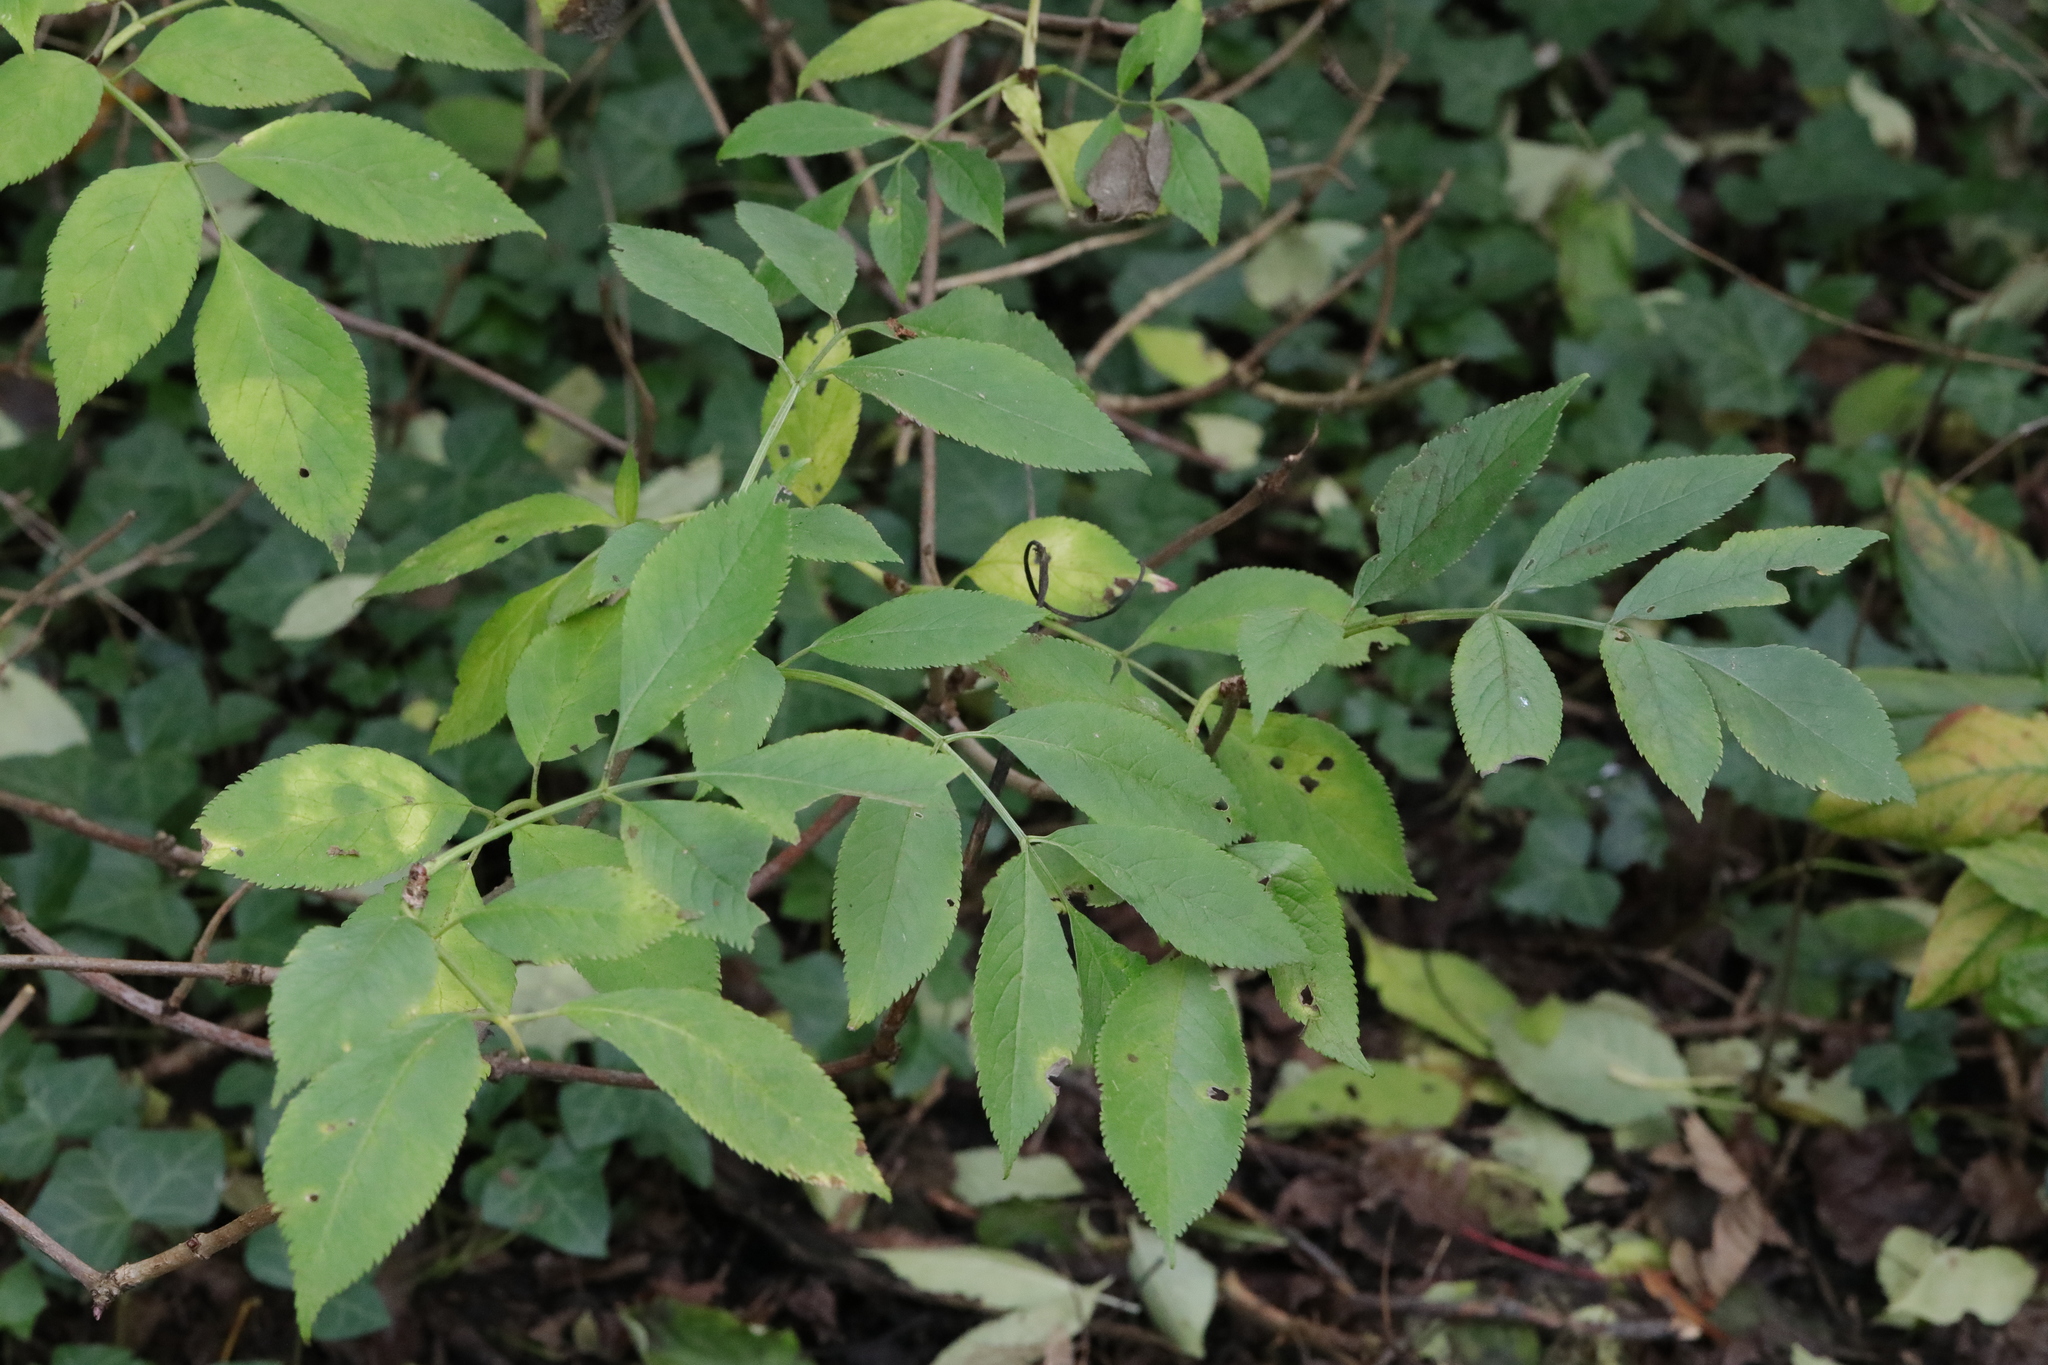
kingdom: Plantae
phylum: Tracheophyta
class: Magnoliopsida
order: Dipsacales
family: Viburnaceae
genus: Sambucus
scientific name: Sambucus nigra
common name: Elder
